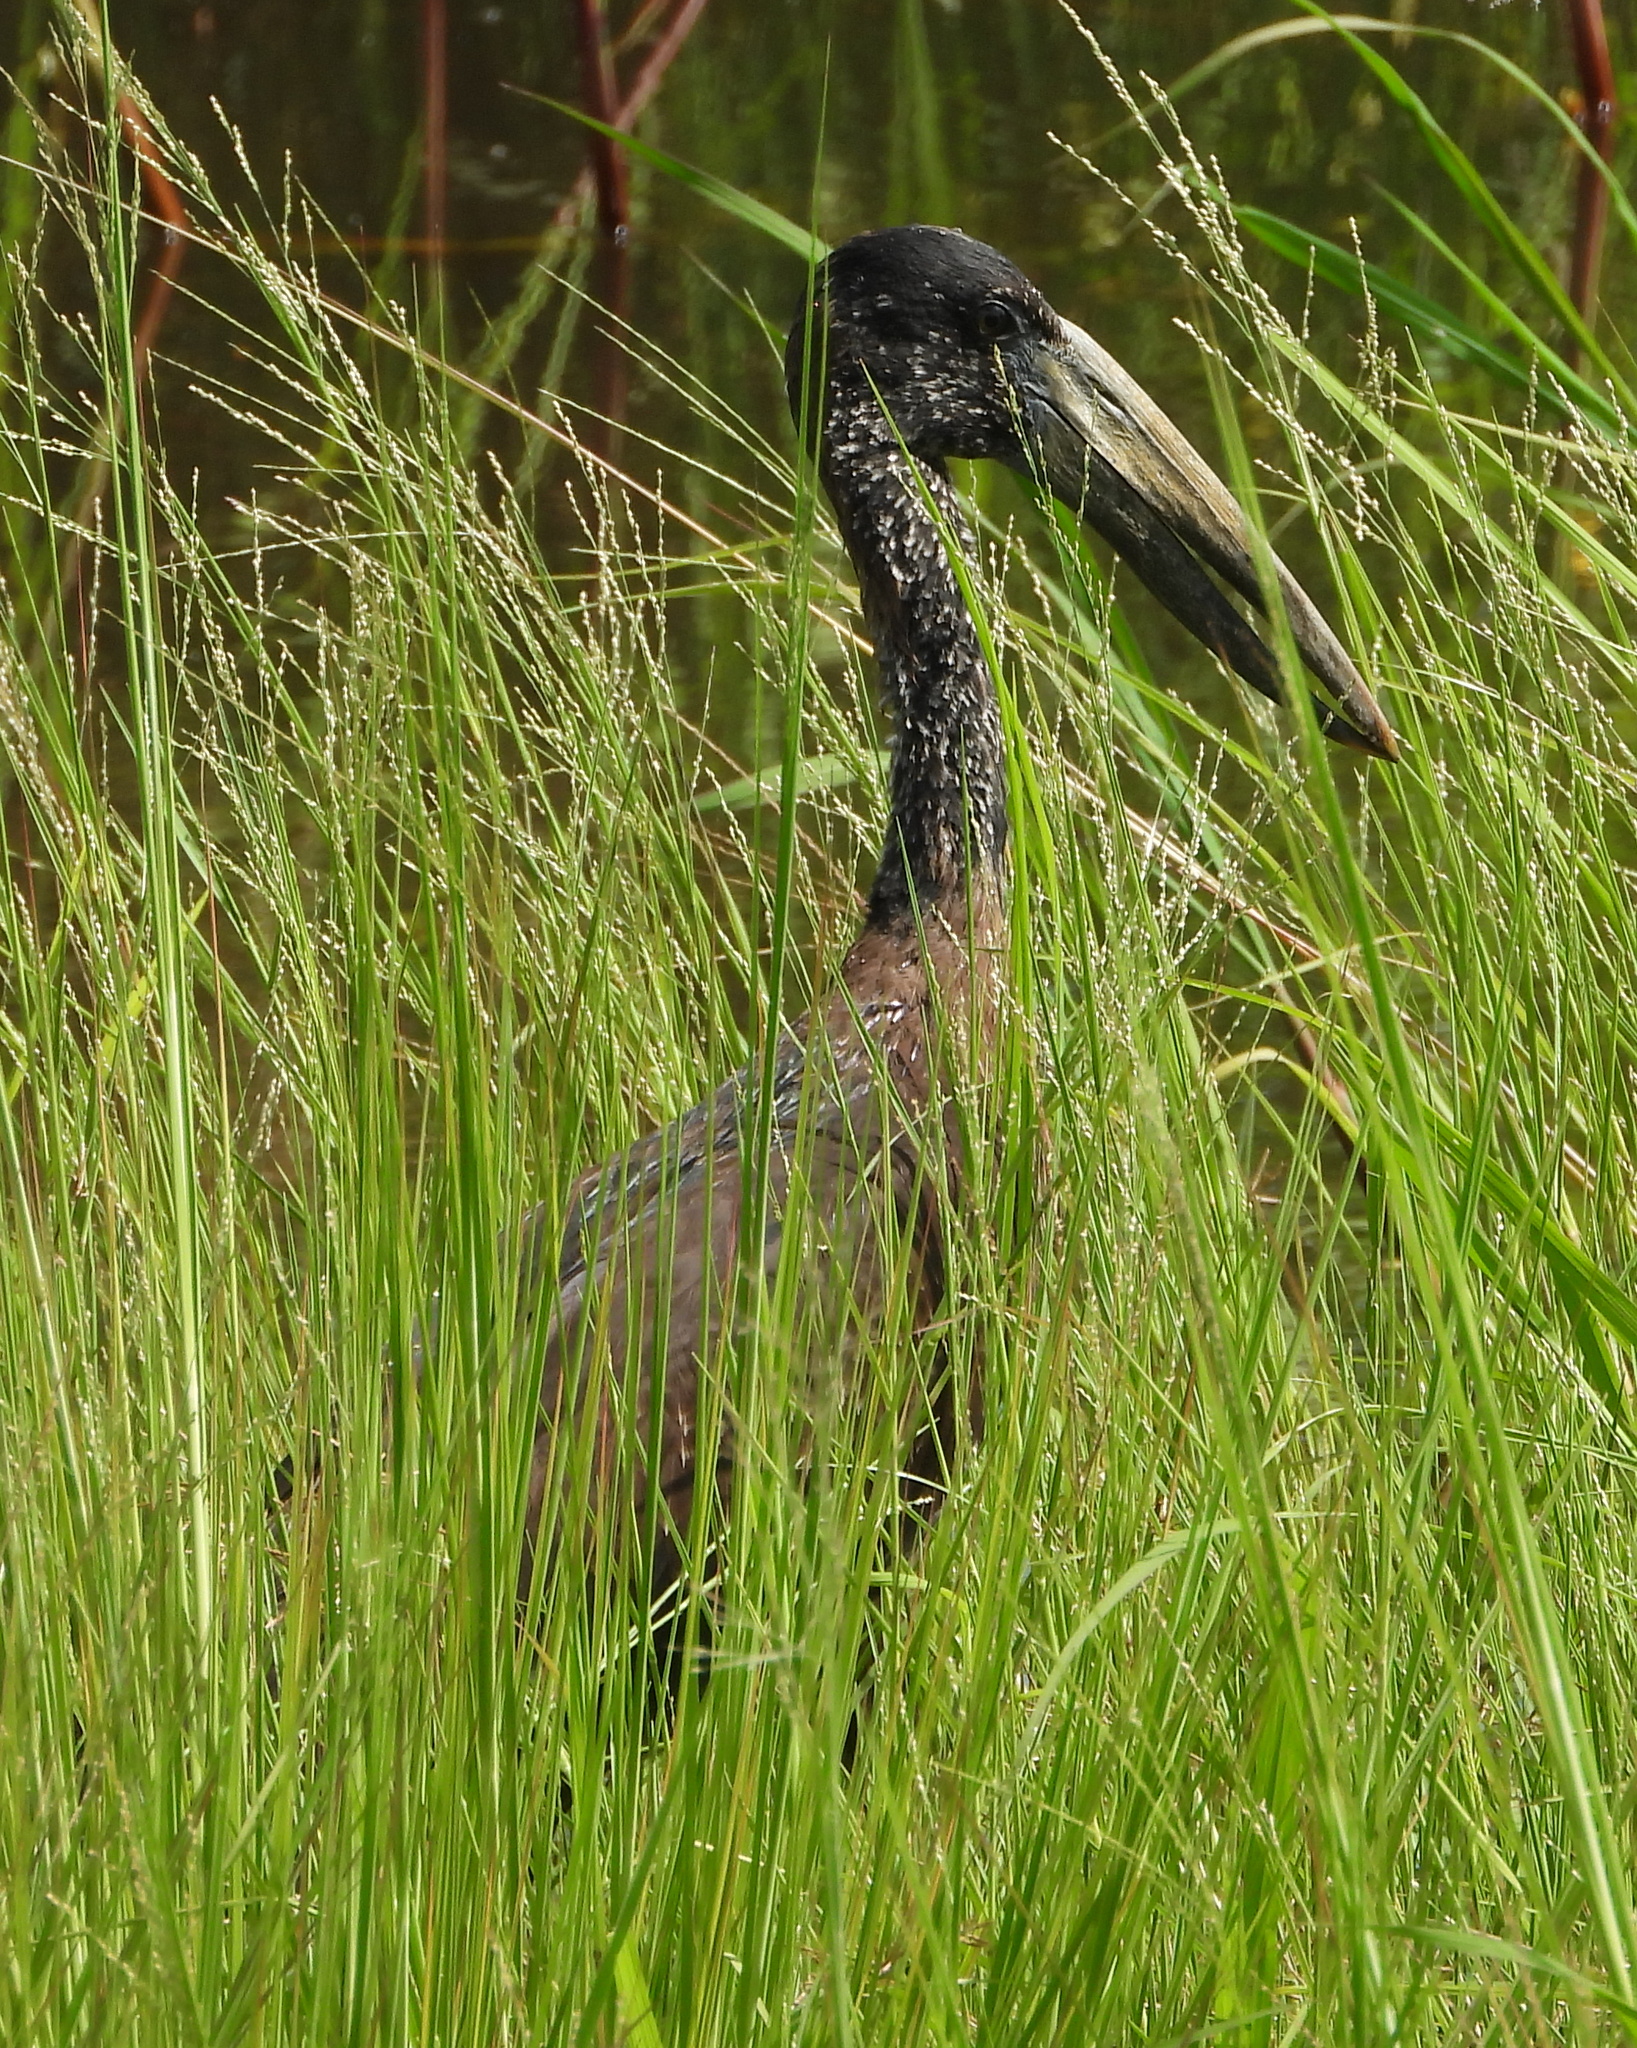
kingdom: Animalia
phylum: Chordata
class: Aves
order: Ciconiiformes
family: Ciconiidae
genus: Anastomus
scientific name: Anastomus lamelligerus
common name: African openbill
